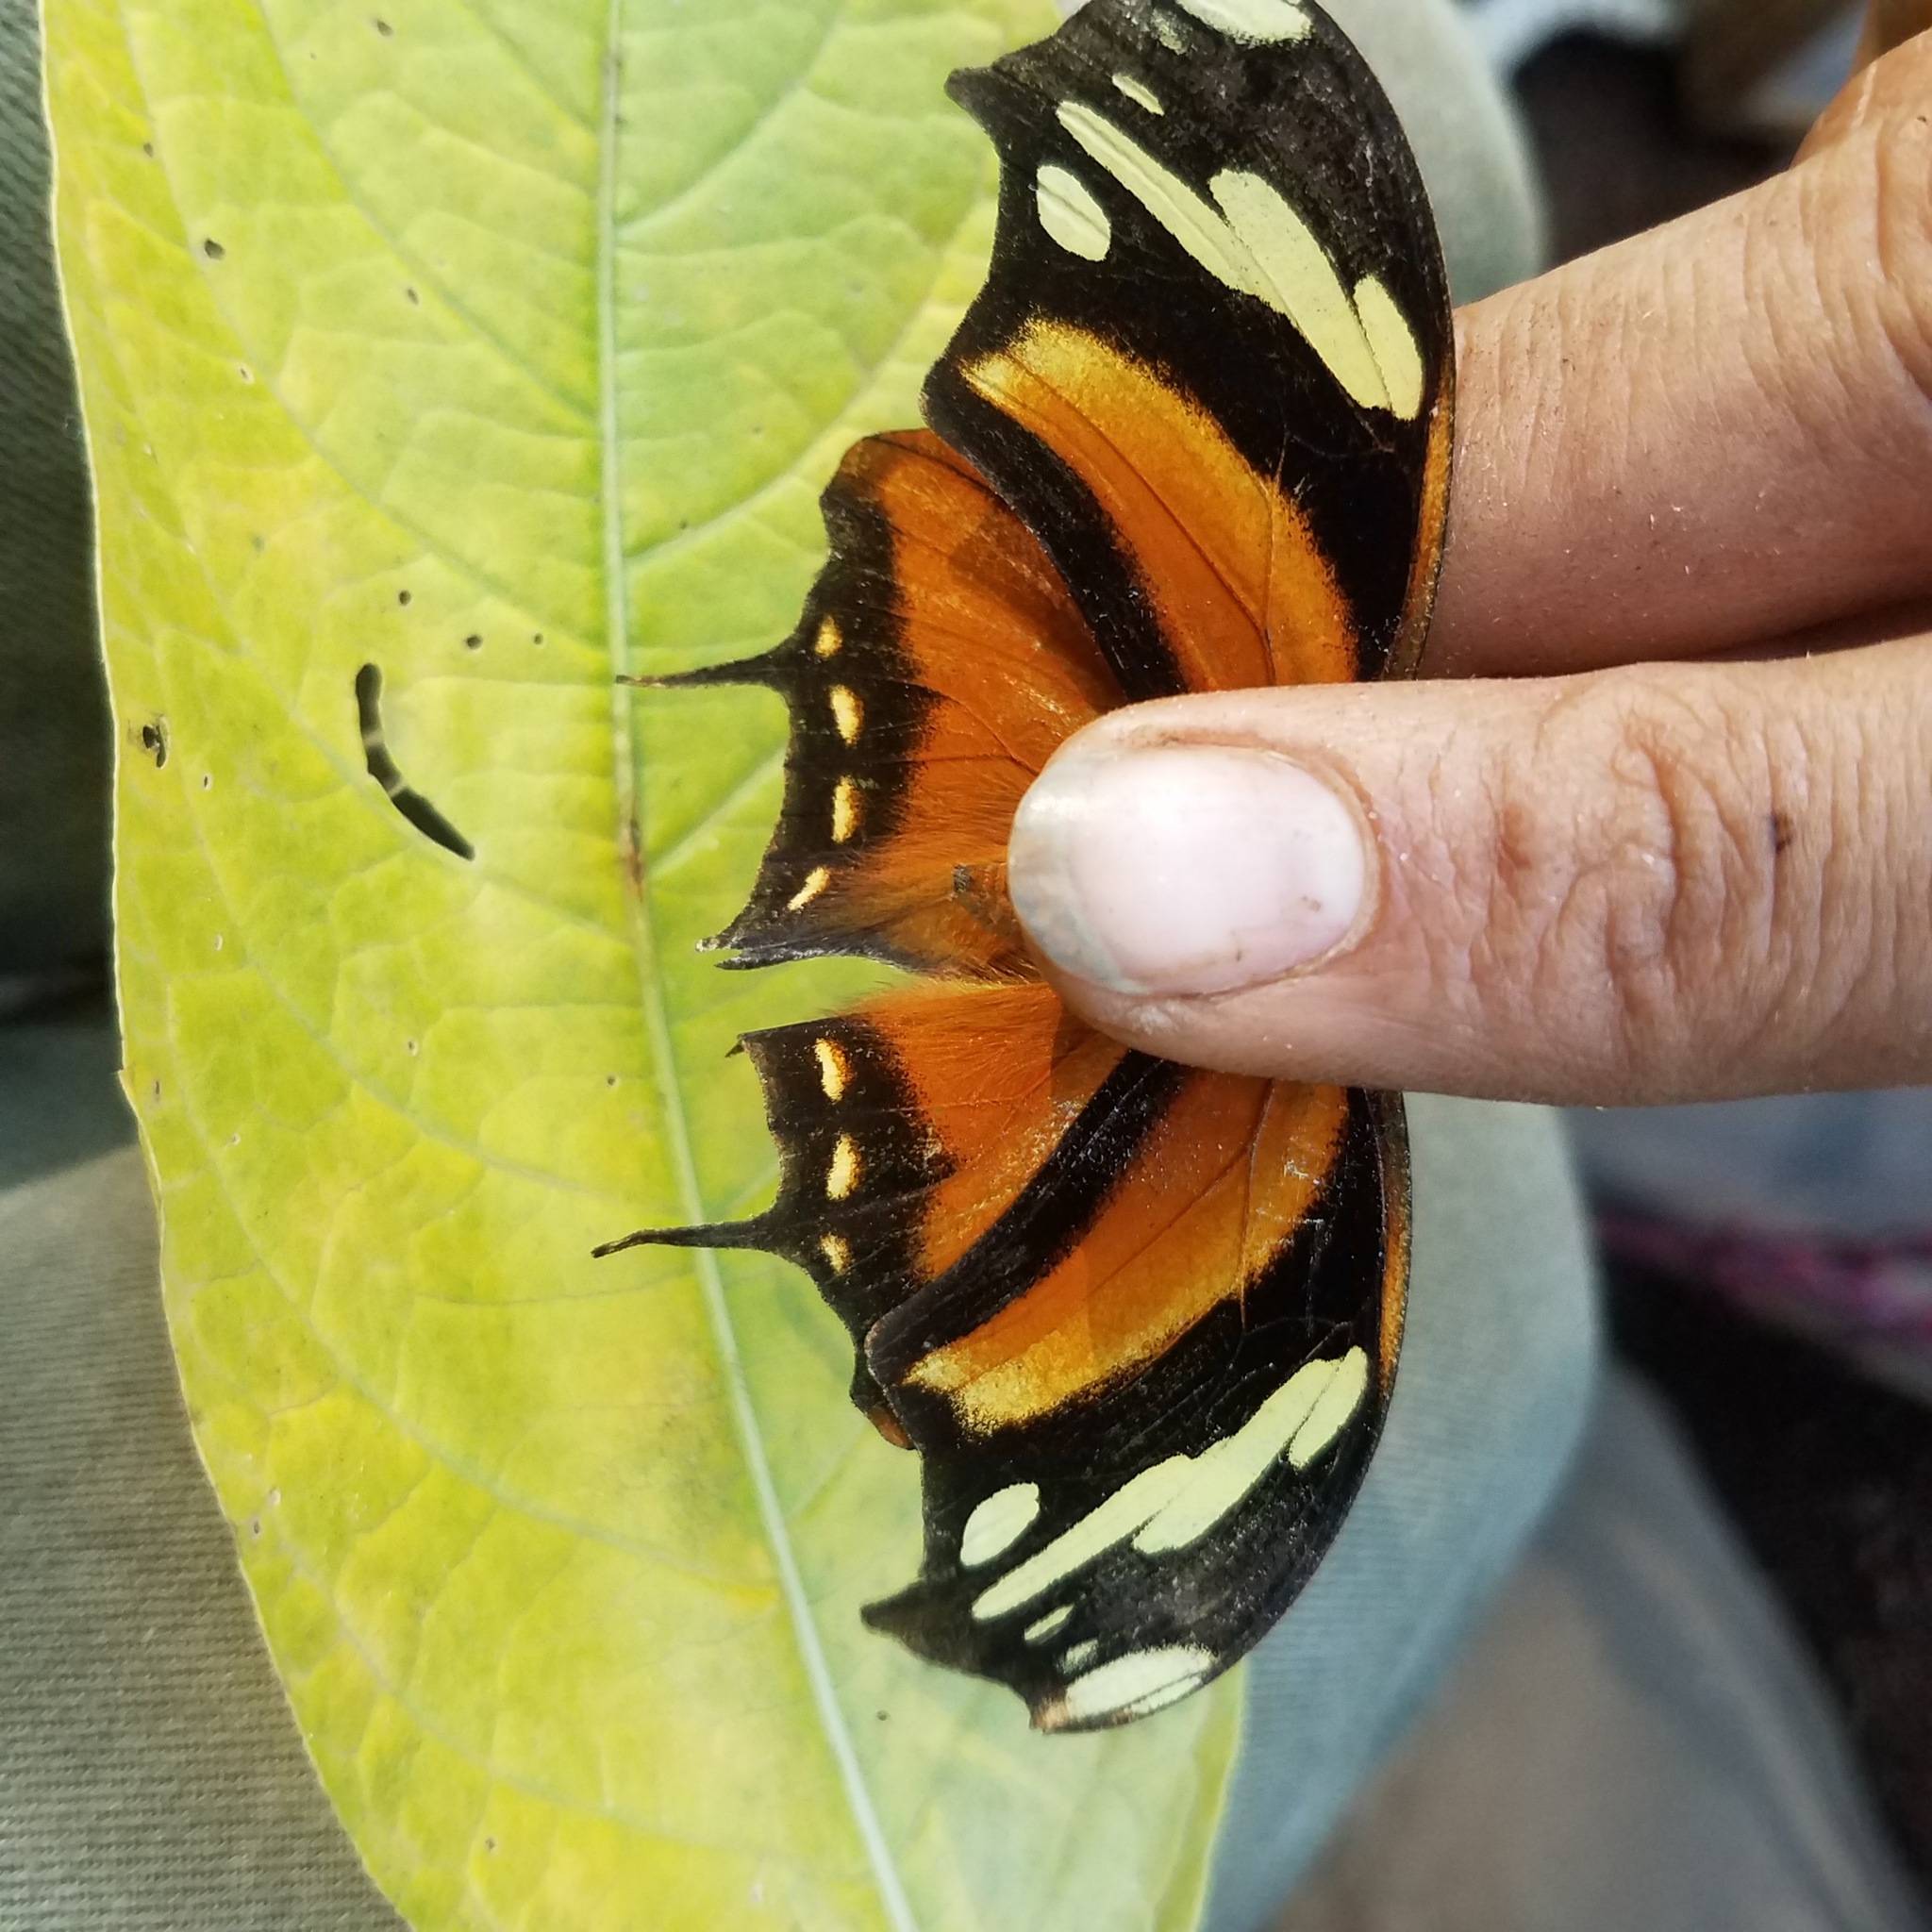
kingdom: Animalia
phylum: Arthropoda
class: Insecta
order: Lepidoptera
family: Nymphalidae
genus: Consul
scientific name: Consul fabius
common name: Tiger leafwing
